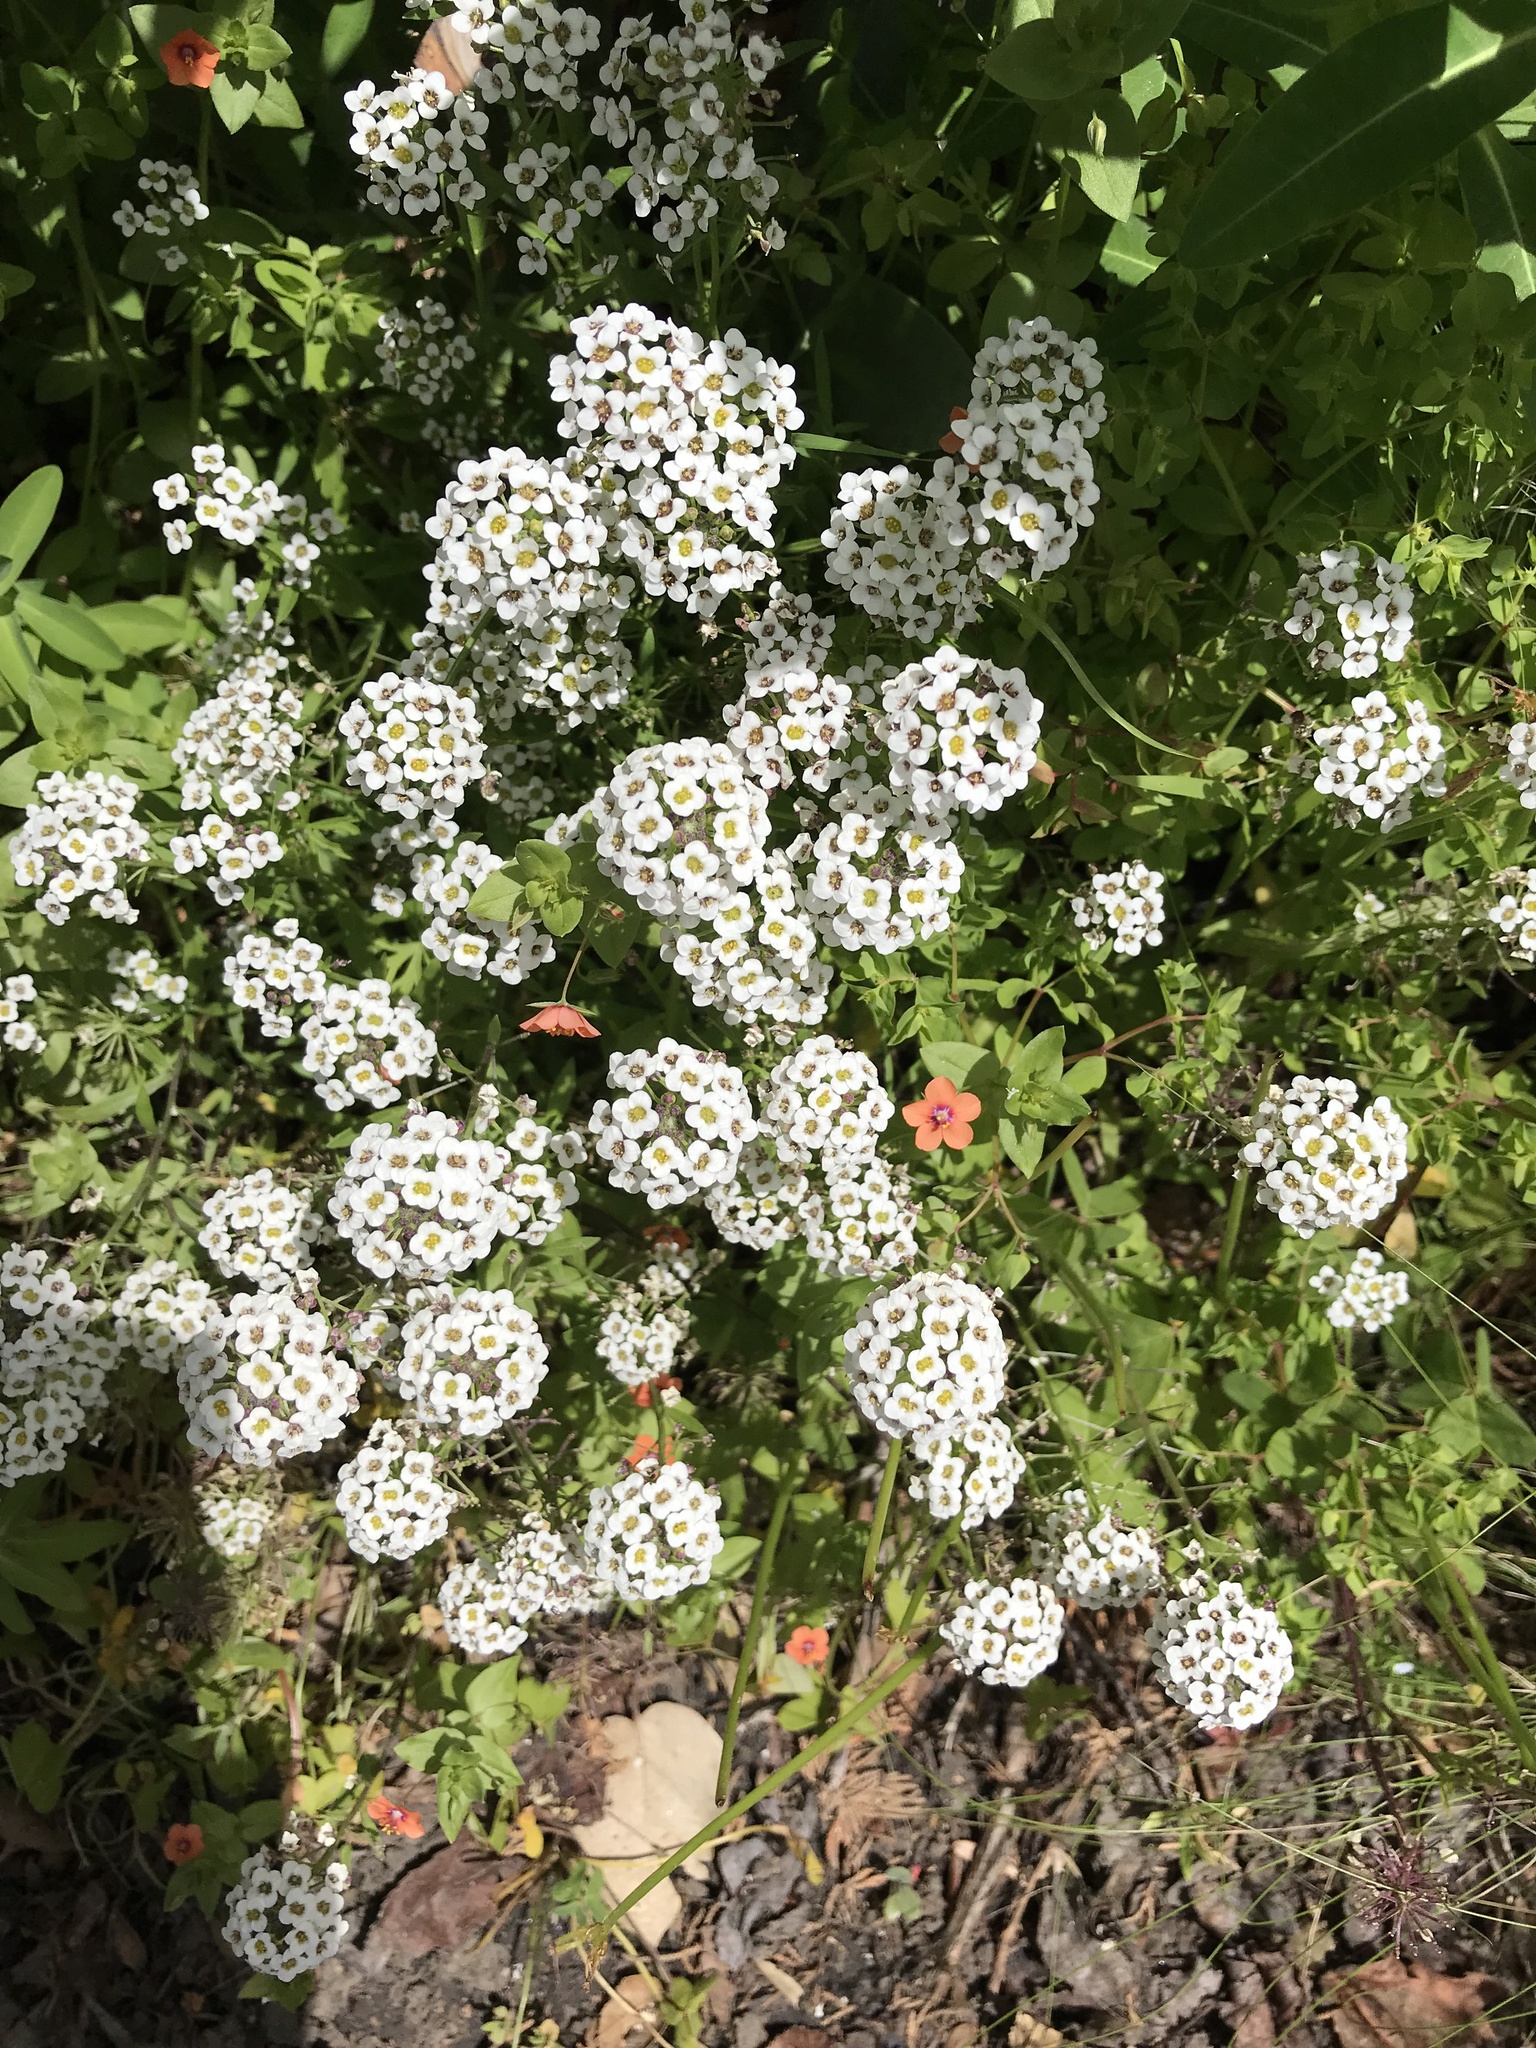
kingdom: Plantae
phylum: Tracheophyta
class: Magnoliopsida
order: Brassicales
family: Brassicaceae
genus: Lobularia
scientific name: Lobularia maritima
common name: Sweet alison
